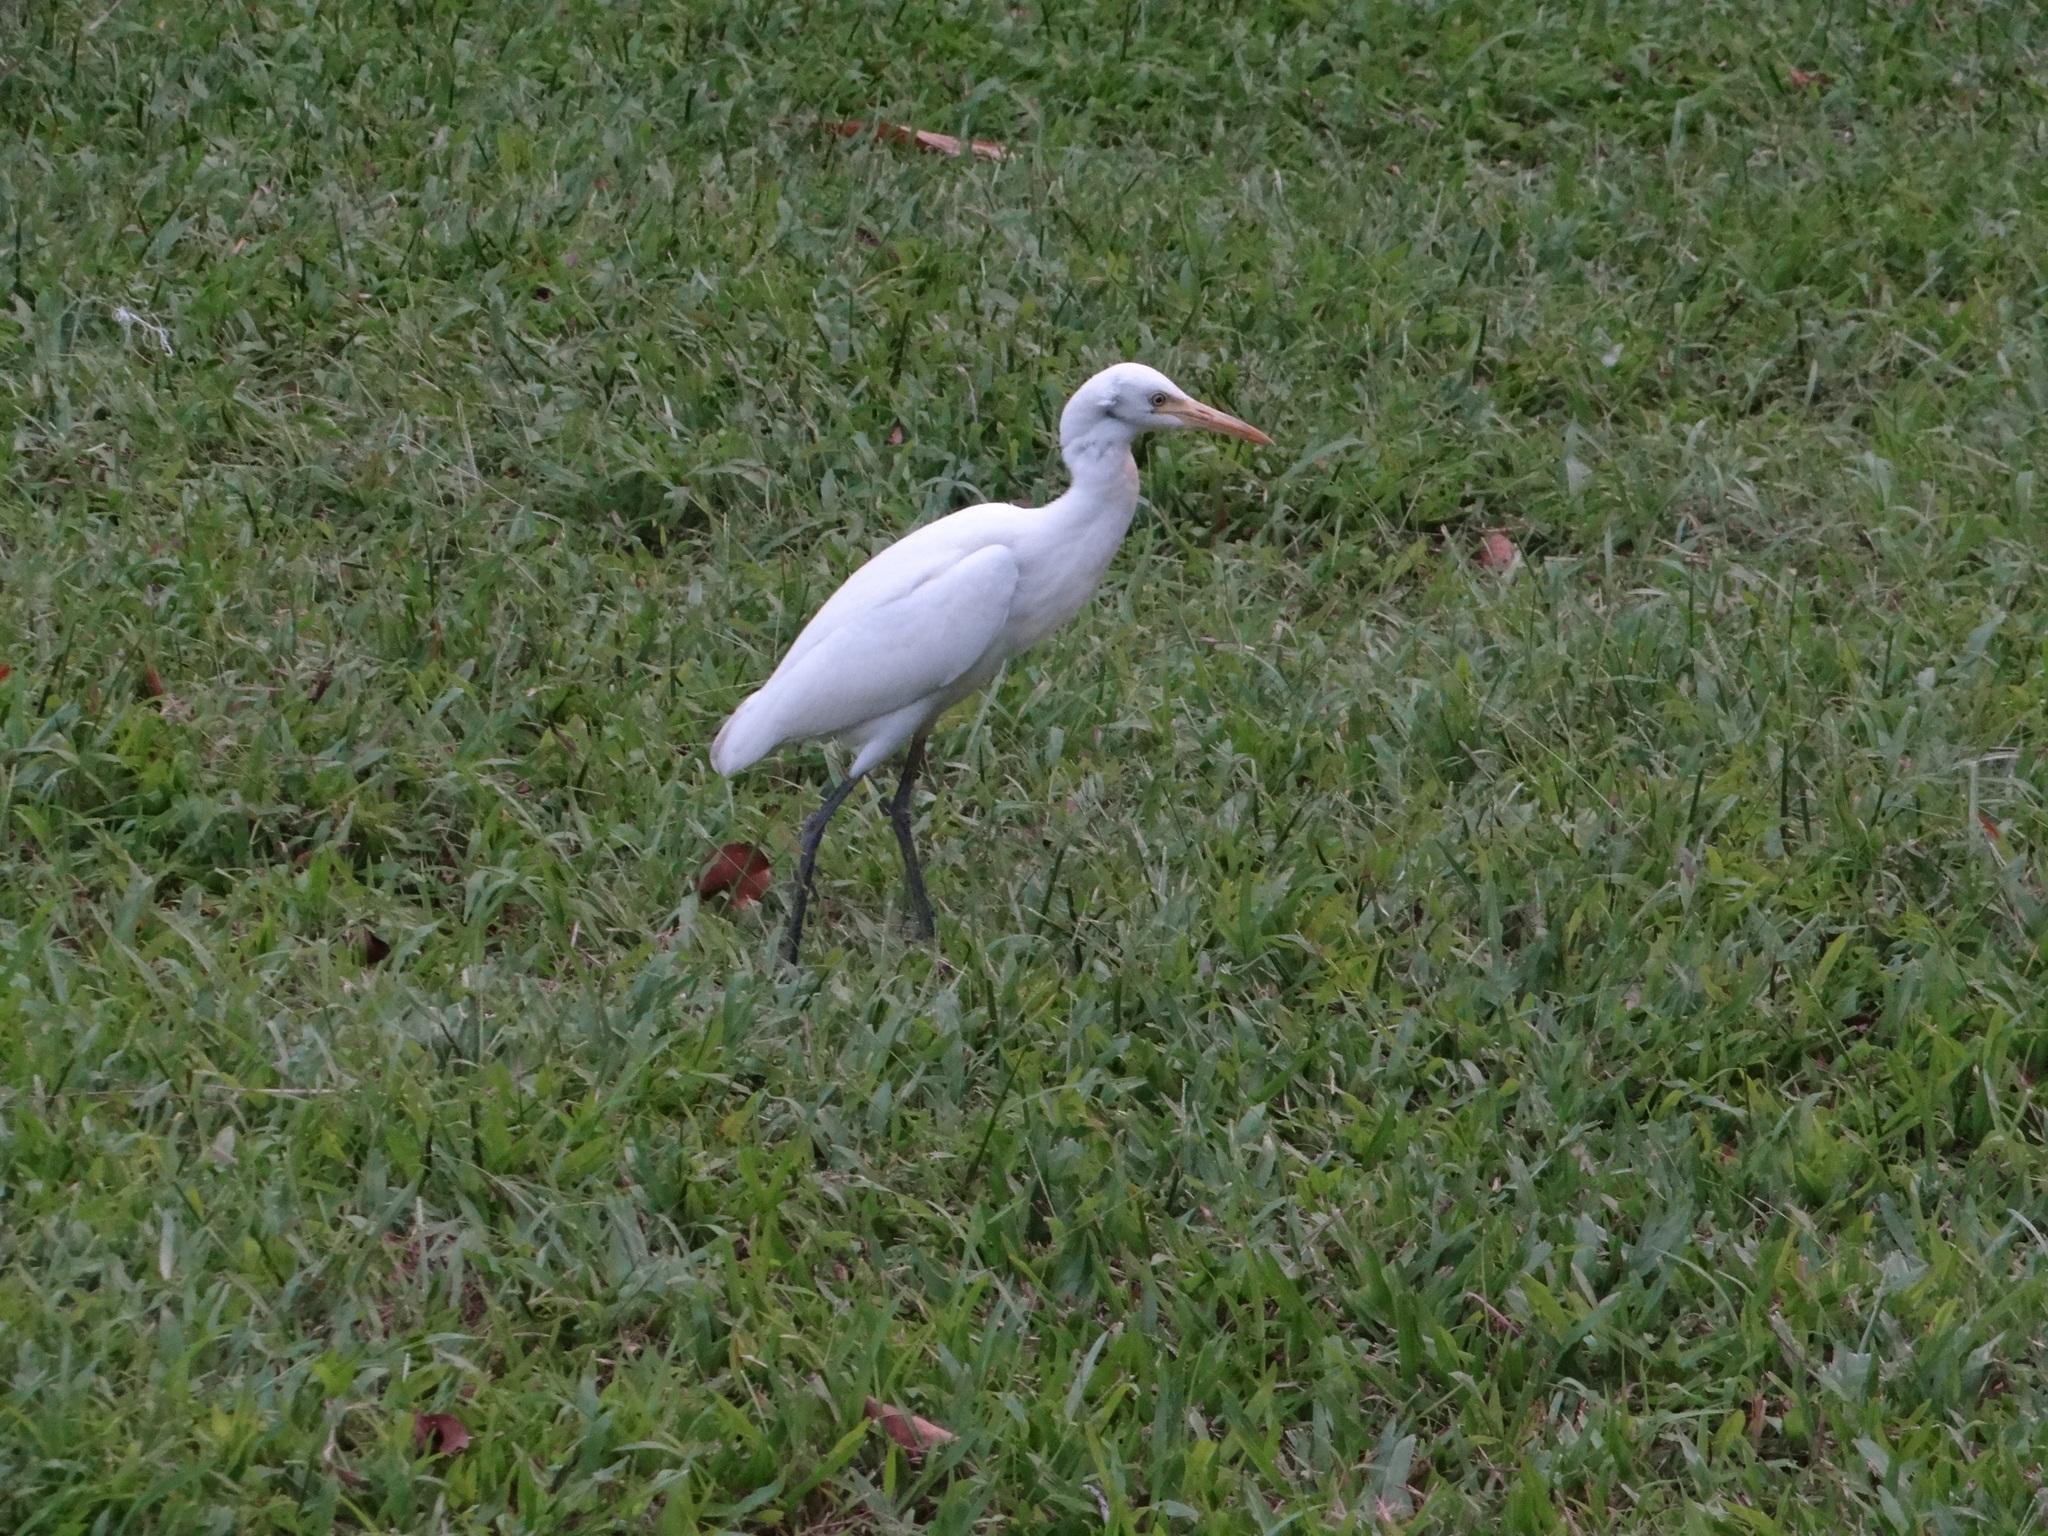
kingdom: Animalia
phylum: Chordata
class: Aves
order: Pelecaniformes
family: Ardeidae
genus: Bubulcus
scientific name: Bubulcus coromandus
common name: Eastern cattle egret
